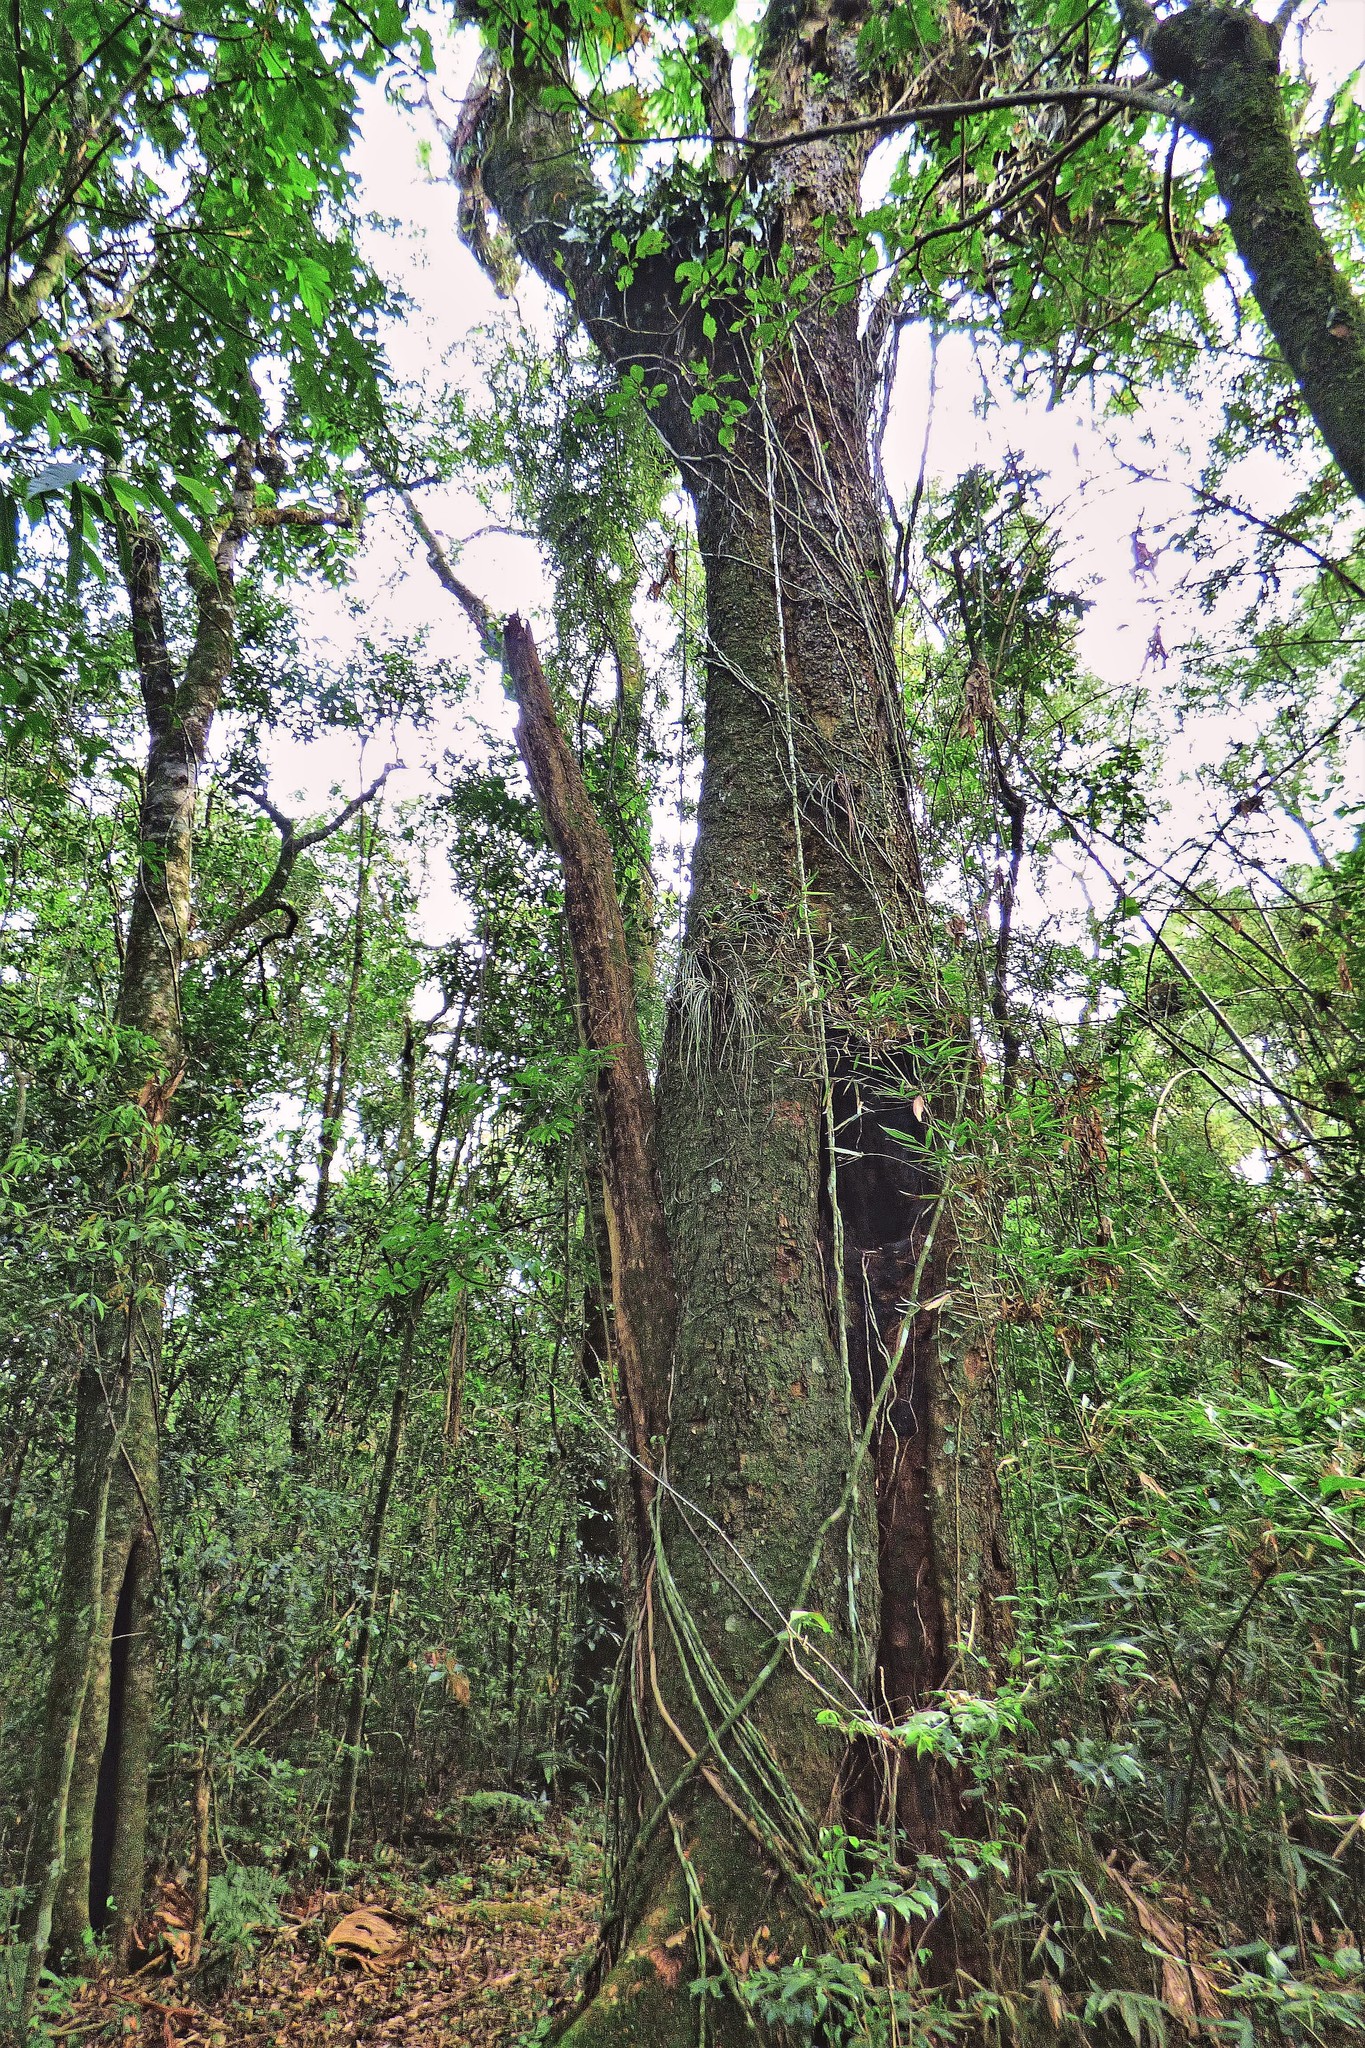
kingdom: Plantae
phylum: Tracheophyta
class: Magnoliopsida
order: Sapindales
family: Meliaceae
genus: Cabralea
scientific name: Cabralea canjerana
